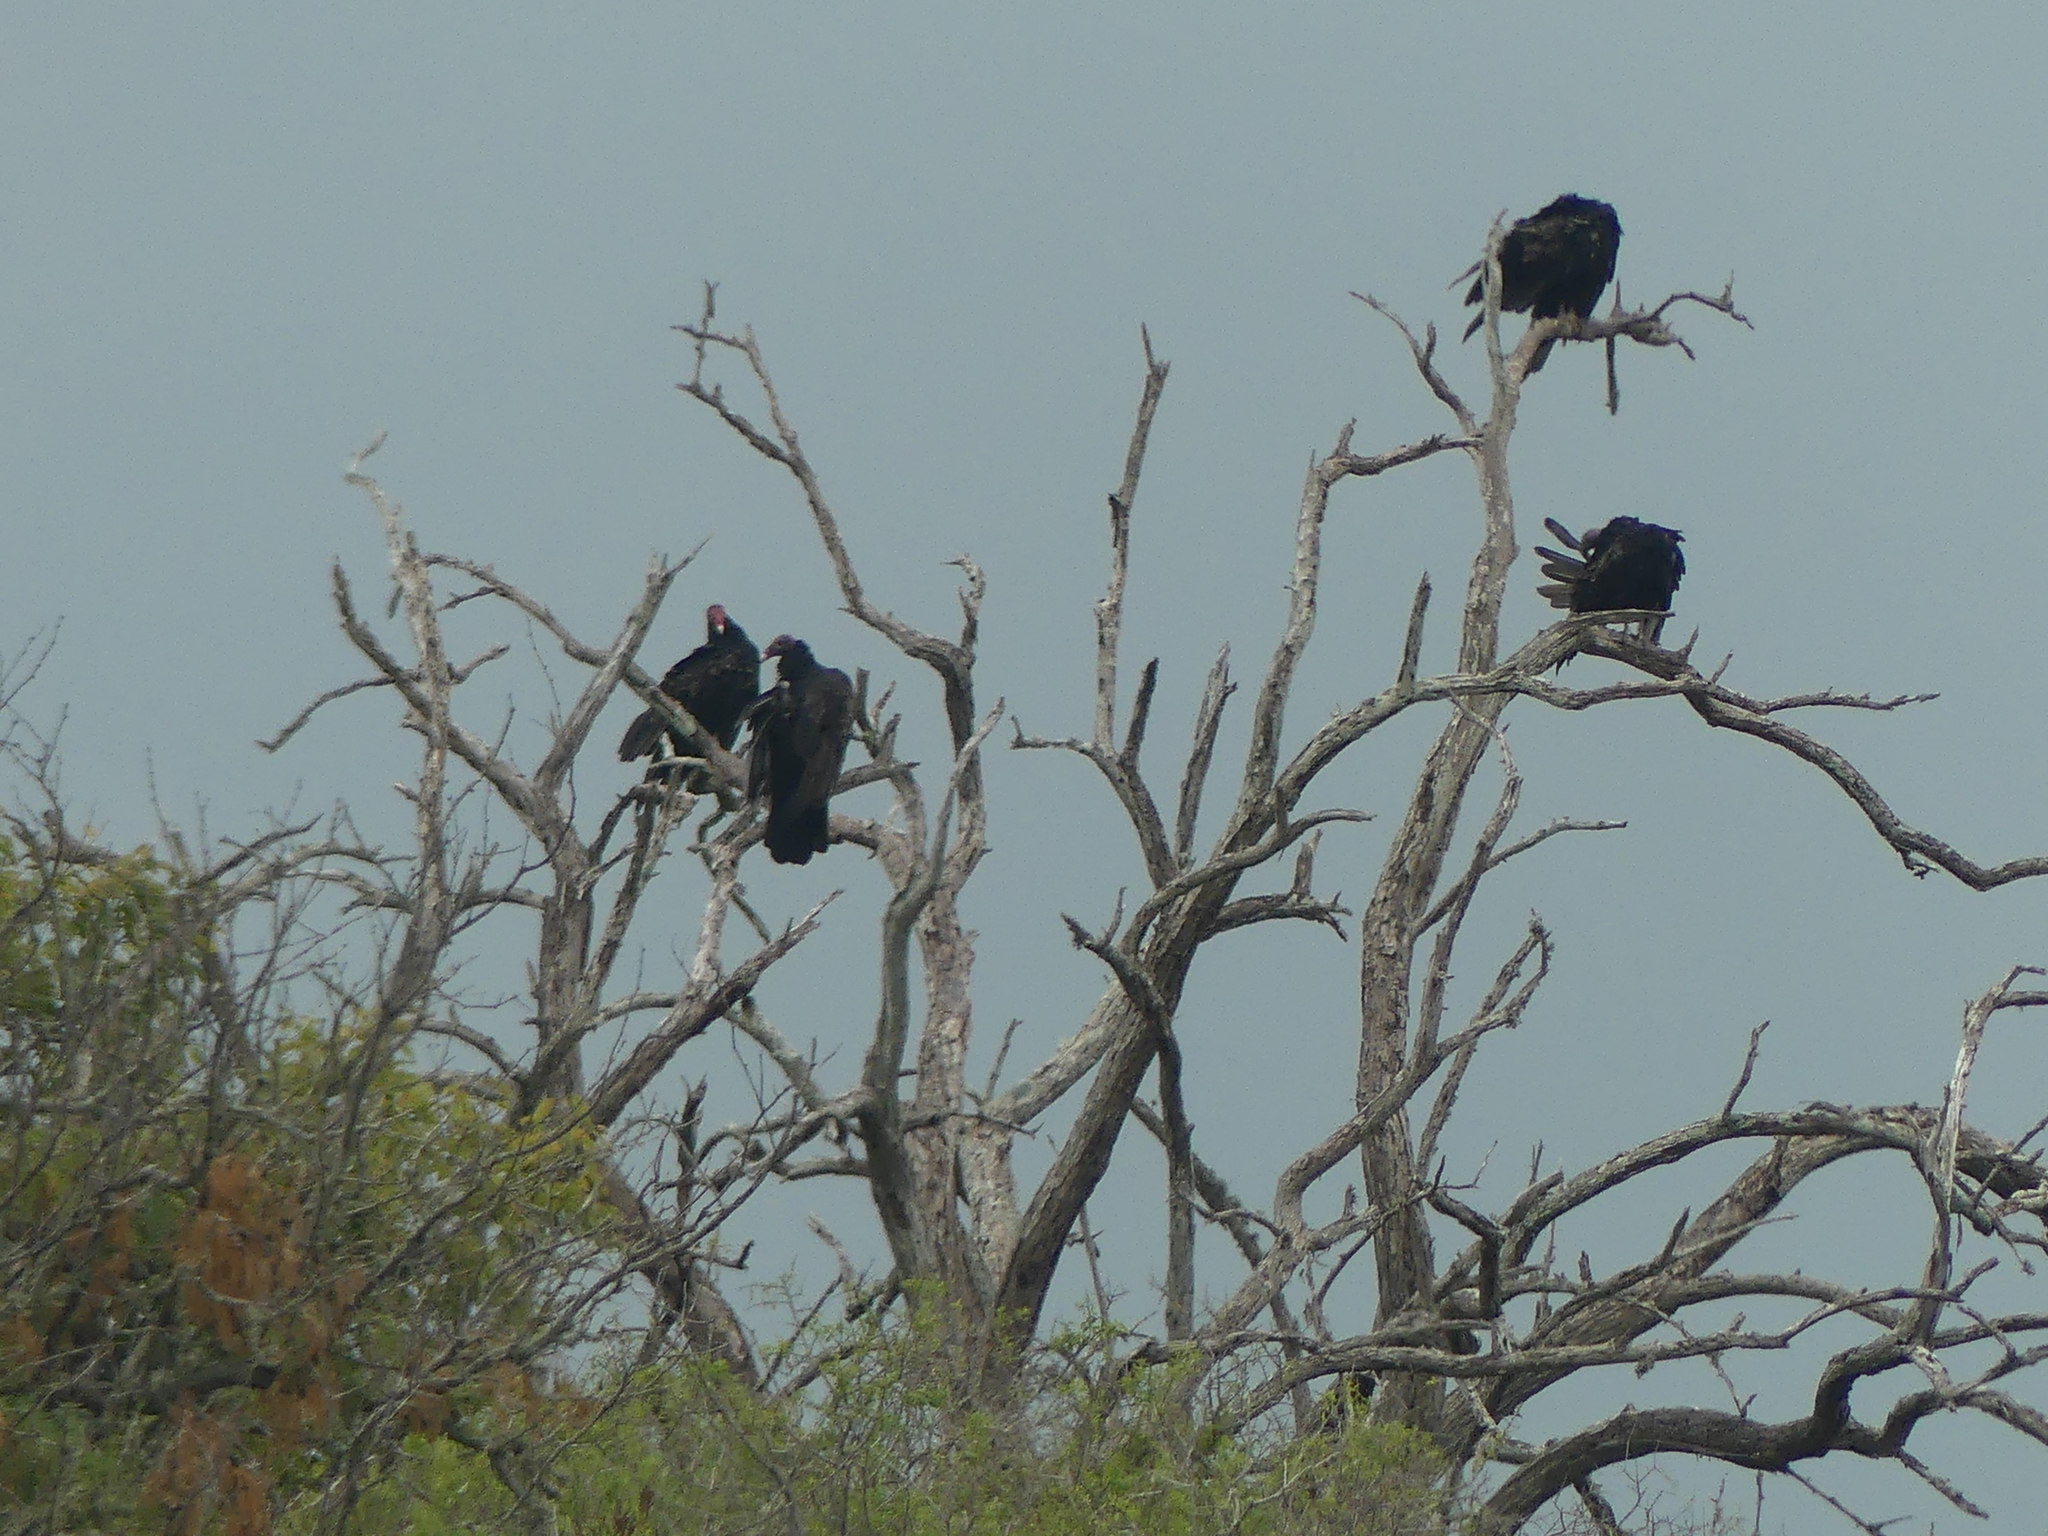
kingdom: Animalia
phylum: Chordata
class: Aves
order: Accipitriformes
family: Cathartidae
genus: Cathartes
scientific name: Cathartes aura
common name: Turkey vulture
